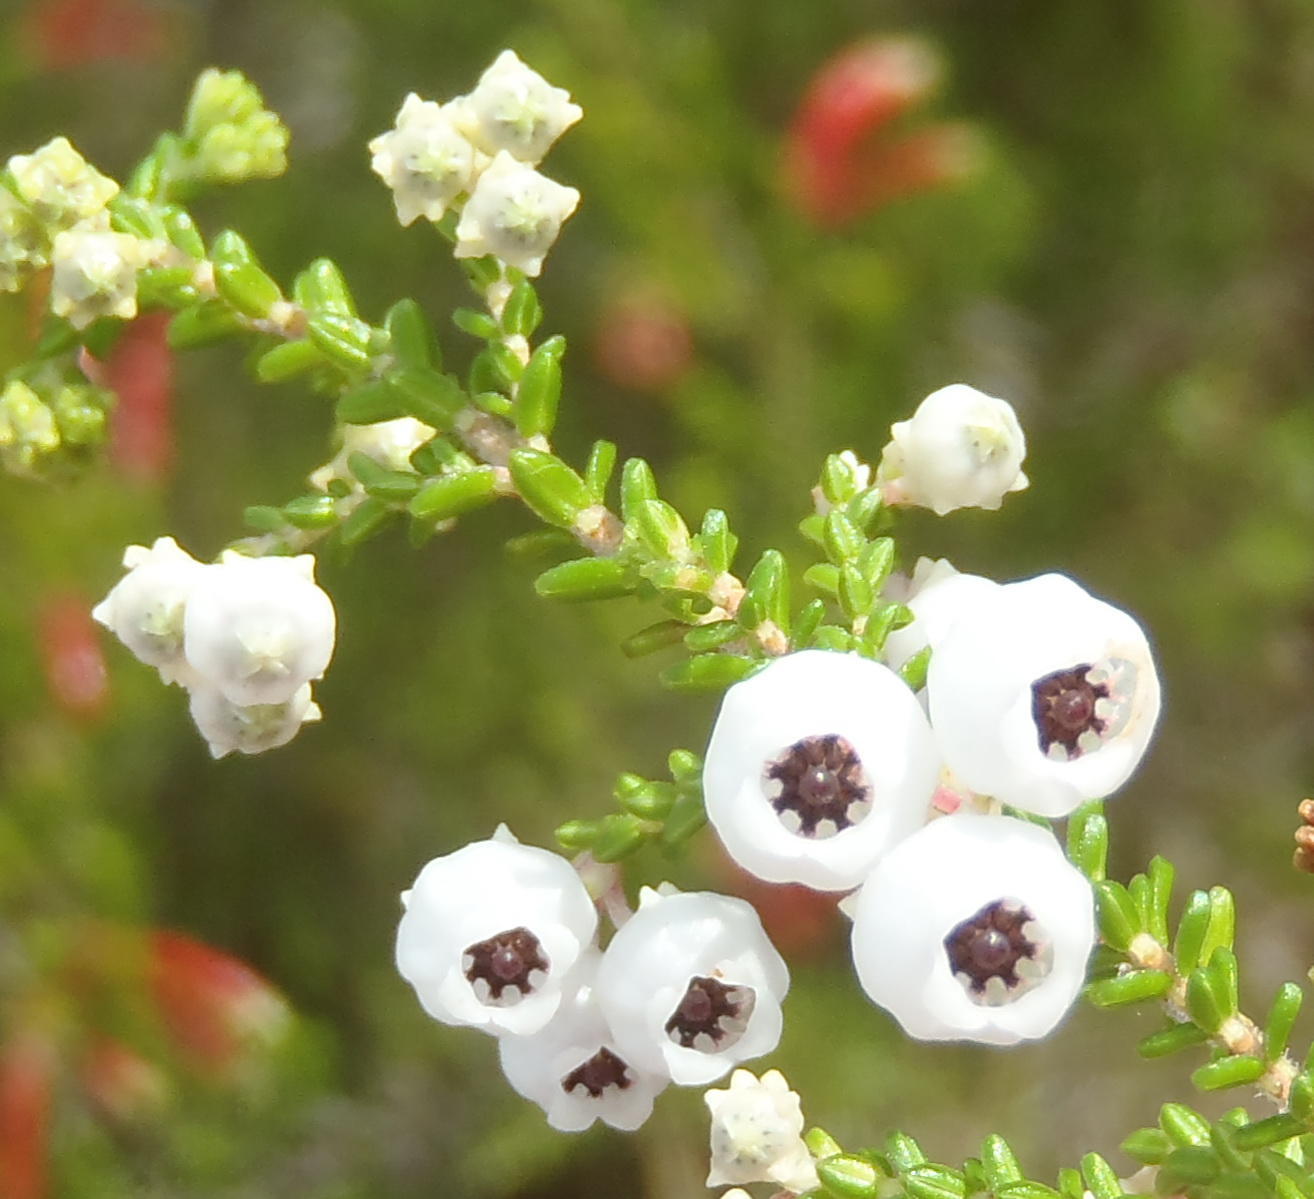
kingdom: Plantae
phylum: Tracheophyta
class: Magnoliopsida
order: Ericales
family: Ericaceae
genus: Erica
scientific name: Erica formosa
